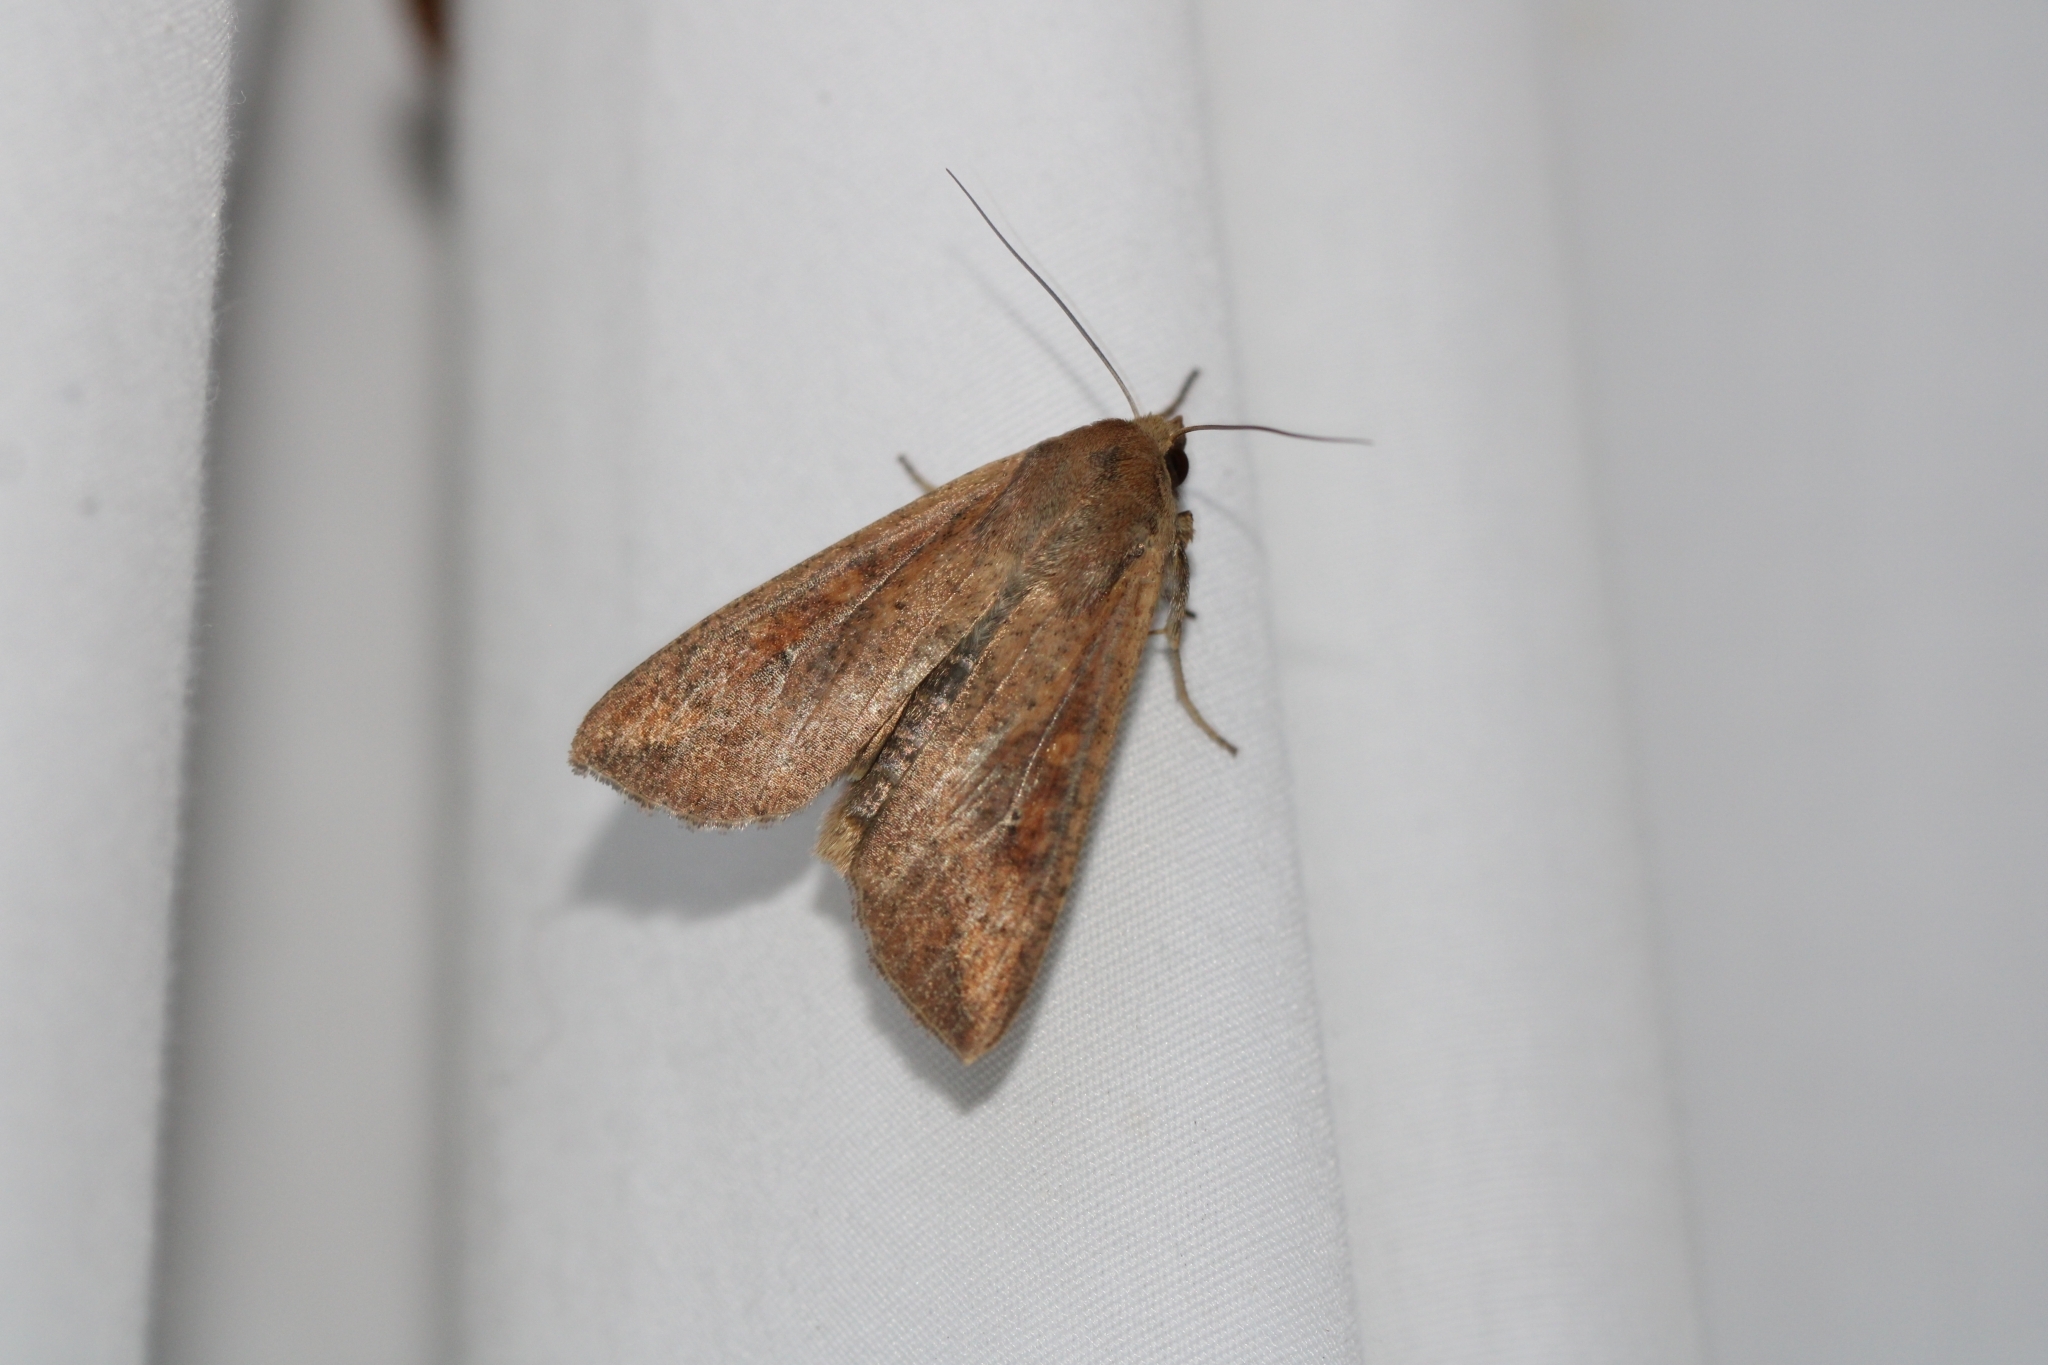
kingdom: Animalia
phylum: Arthropoda
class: Insecta
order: Lepidoptera
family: Noctuidae
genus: Mythimna
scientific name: Mythimna unipuncta
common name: White-speck
